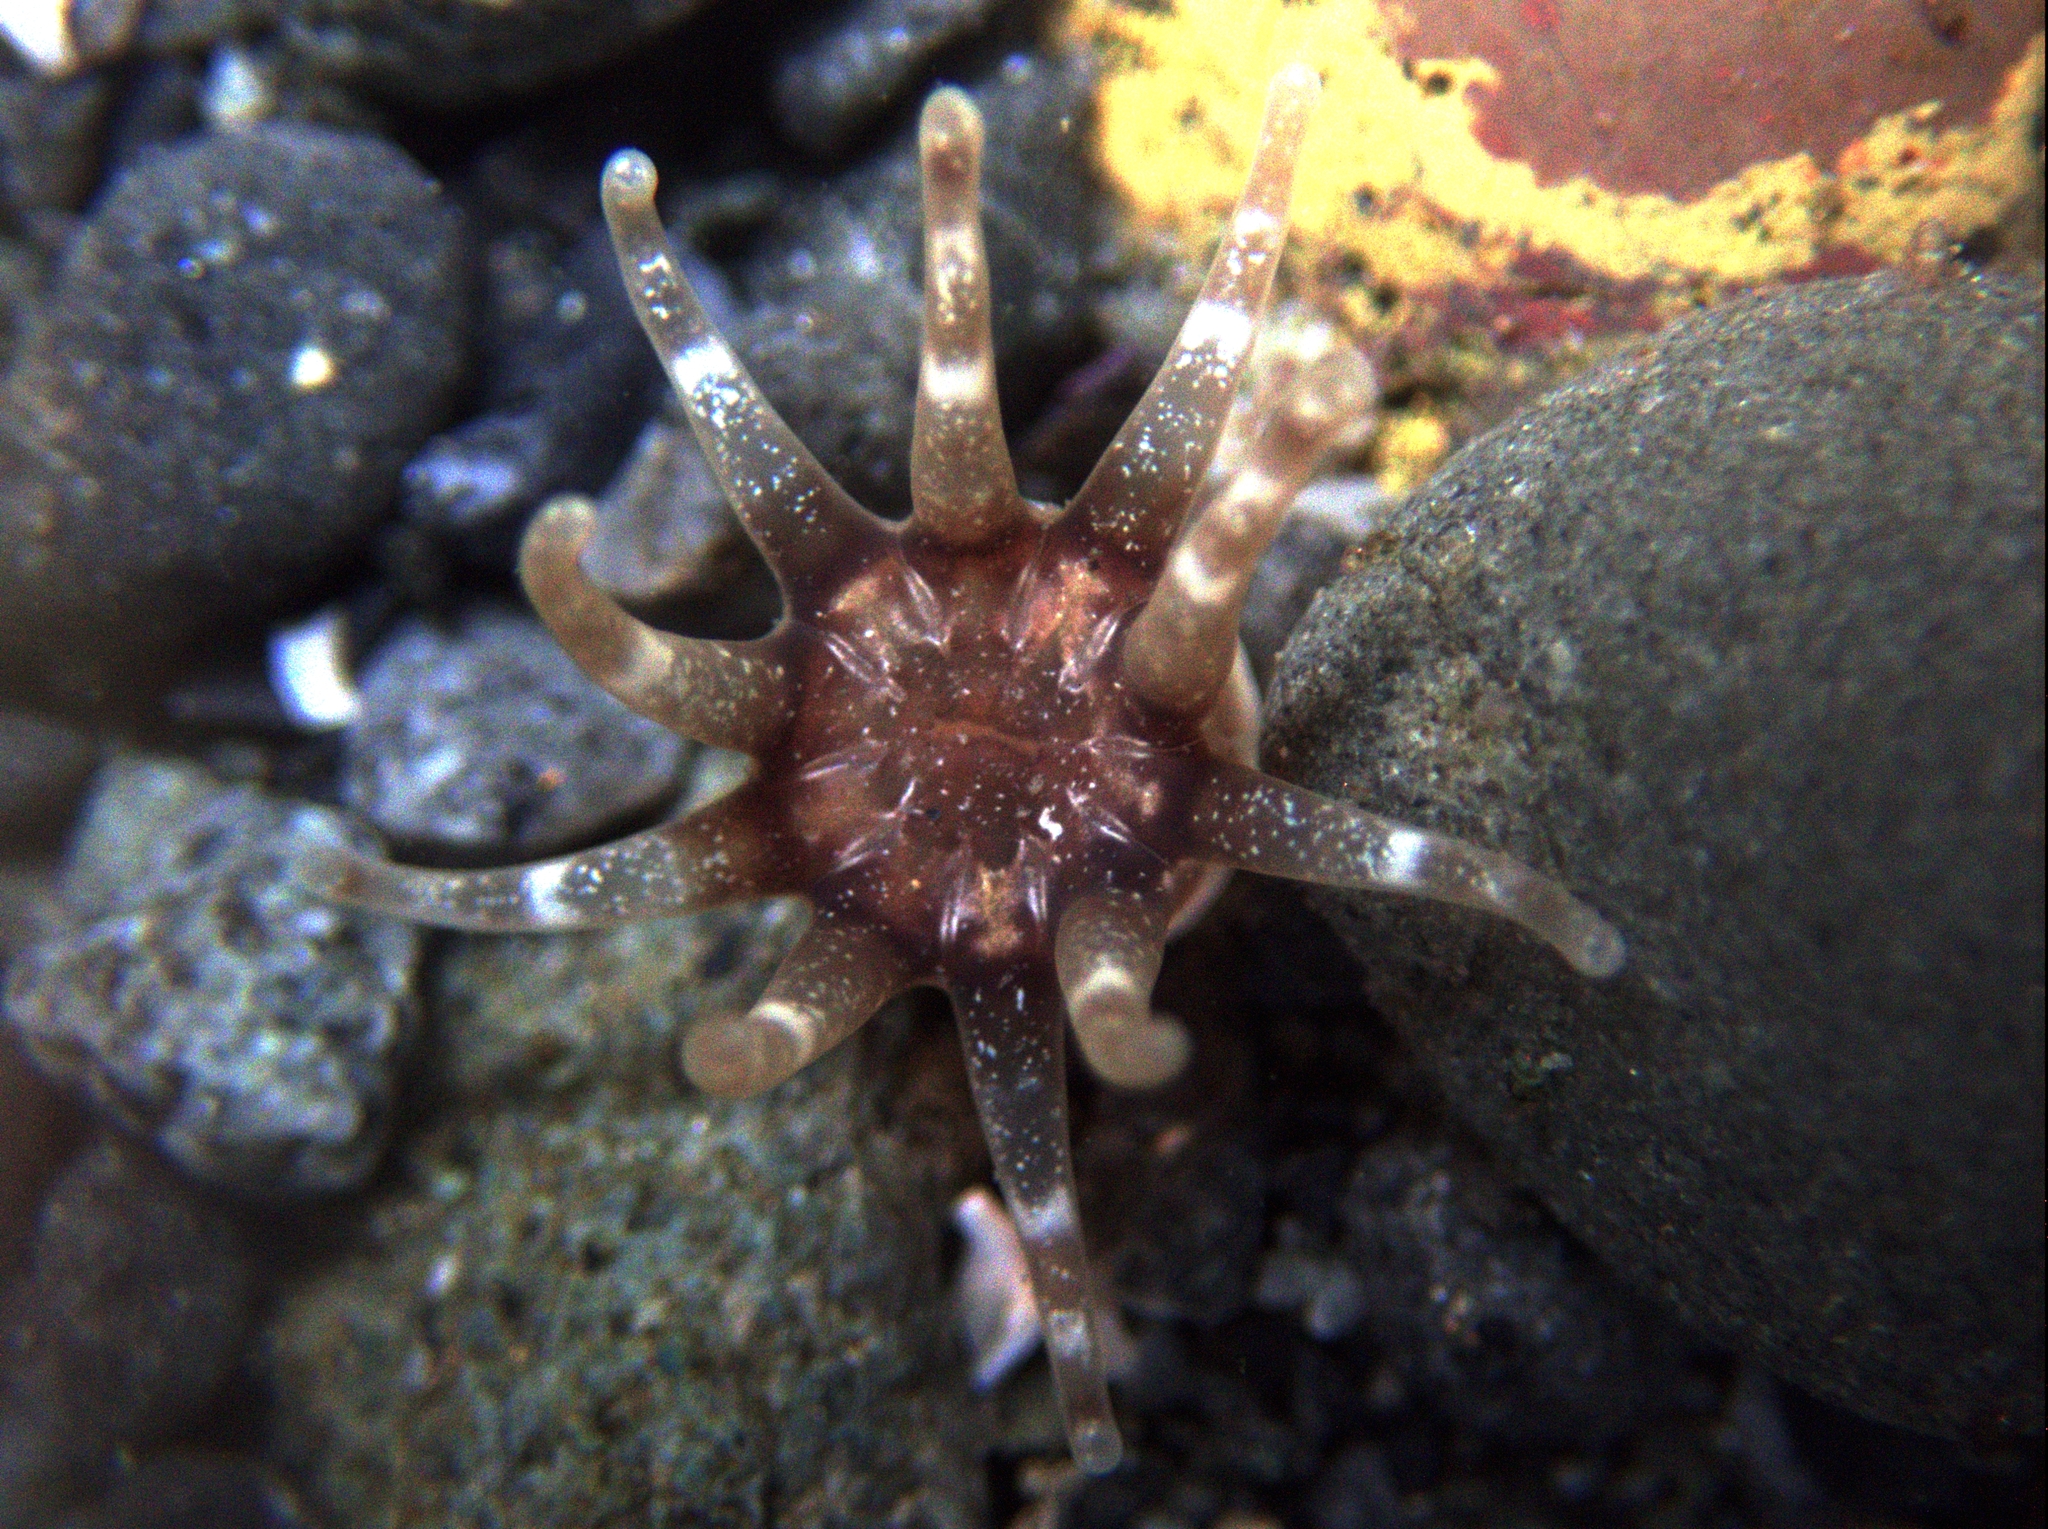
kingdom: Animalia
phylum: Cnidaria
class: Anthozoa
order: Actiniaria
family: Halcampidae
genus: Halcampa
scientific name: Halcampa decemtentaculata
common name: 10-tentacle burrowing anemone
